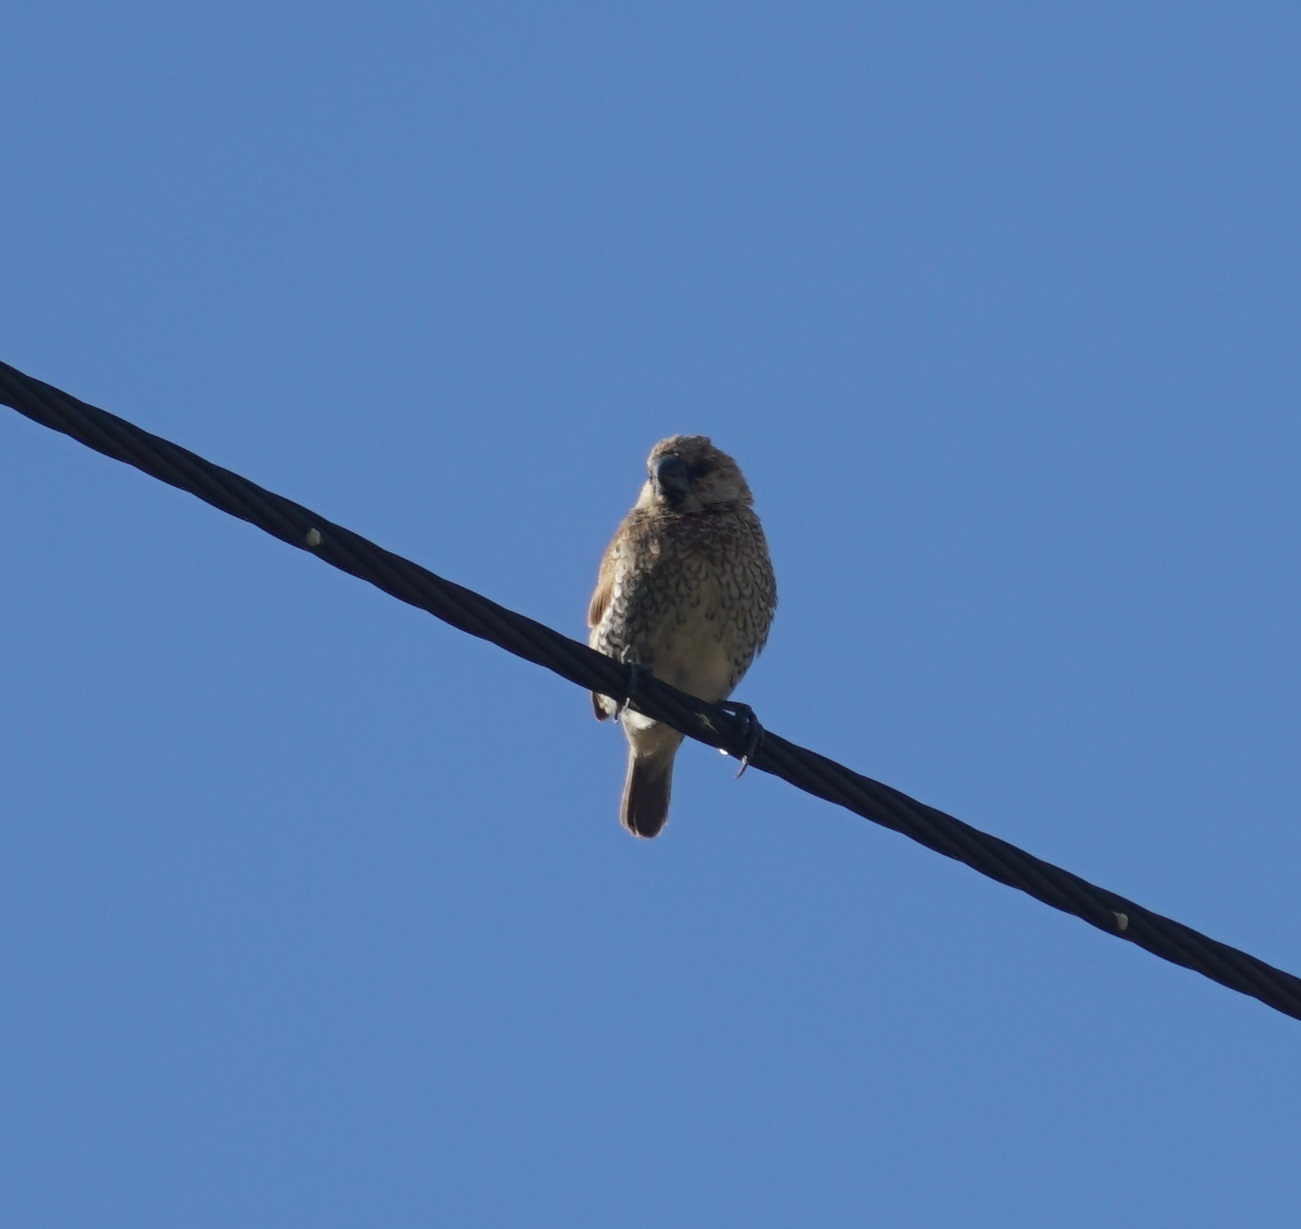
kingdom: Animalia
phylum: Chordata
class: Aves
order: Passeriformes
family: Estrildidae
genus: Lonchura
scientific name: Lonchura punctulata
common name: Scaly-breasted munia
